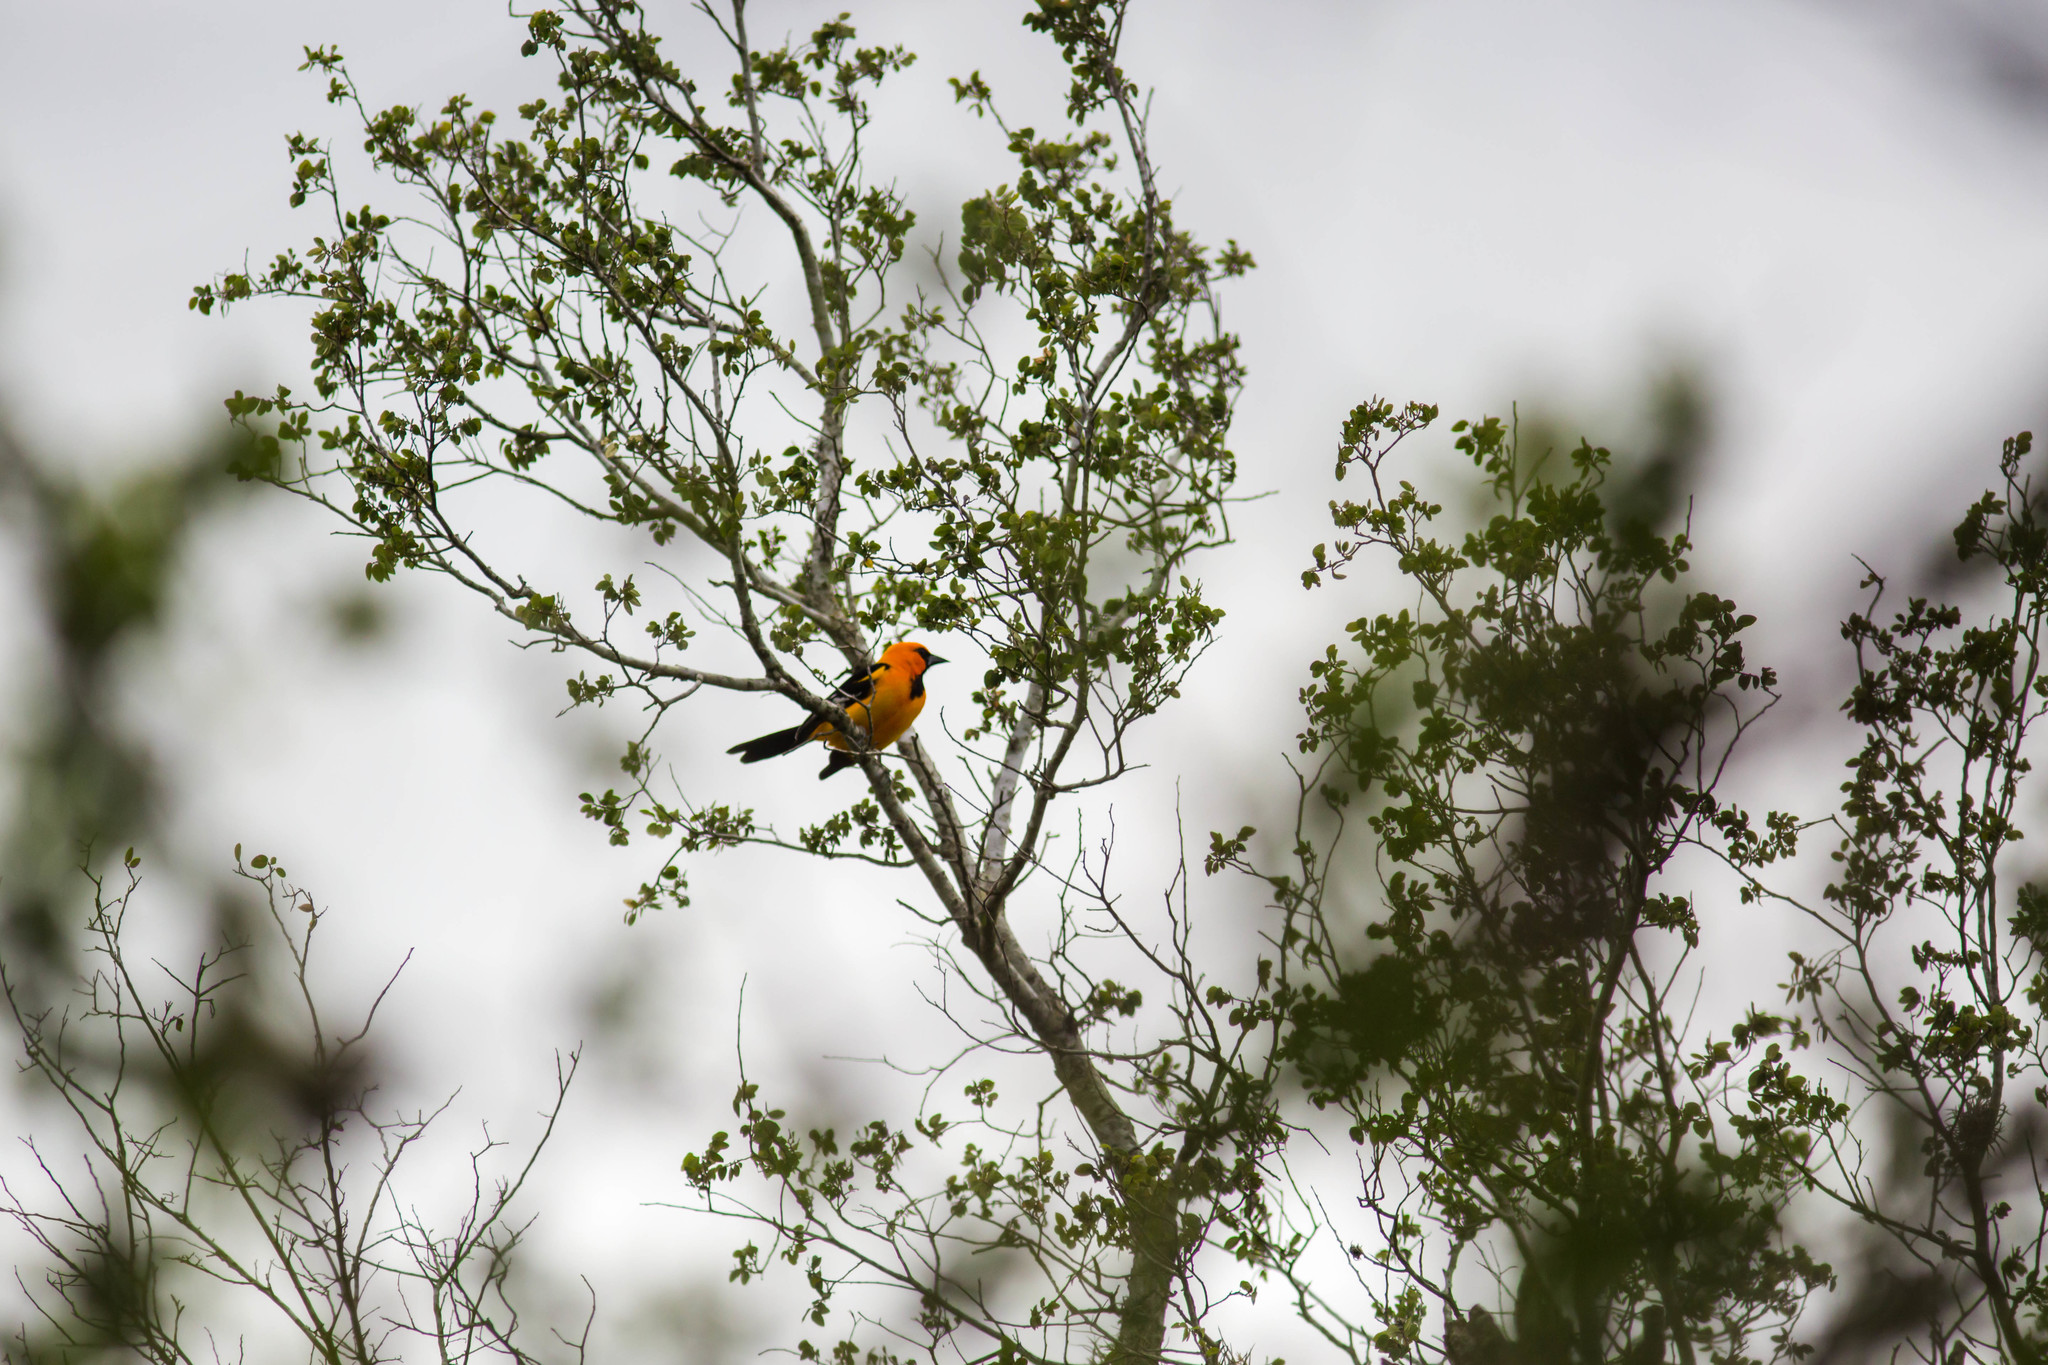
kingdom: Animalia
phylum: Chordata
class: Aves
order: Passeriformes
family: Icteridae
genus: Icterus
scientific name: Icterus gularis
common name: Altamira oriole
